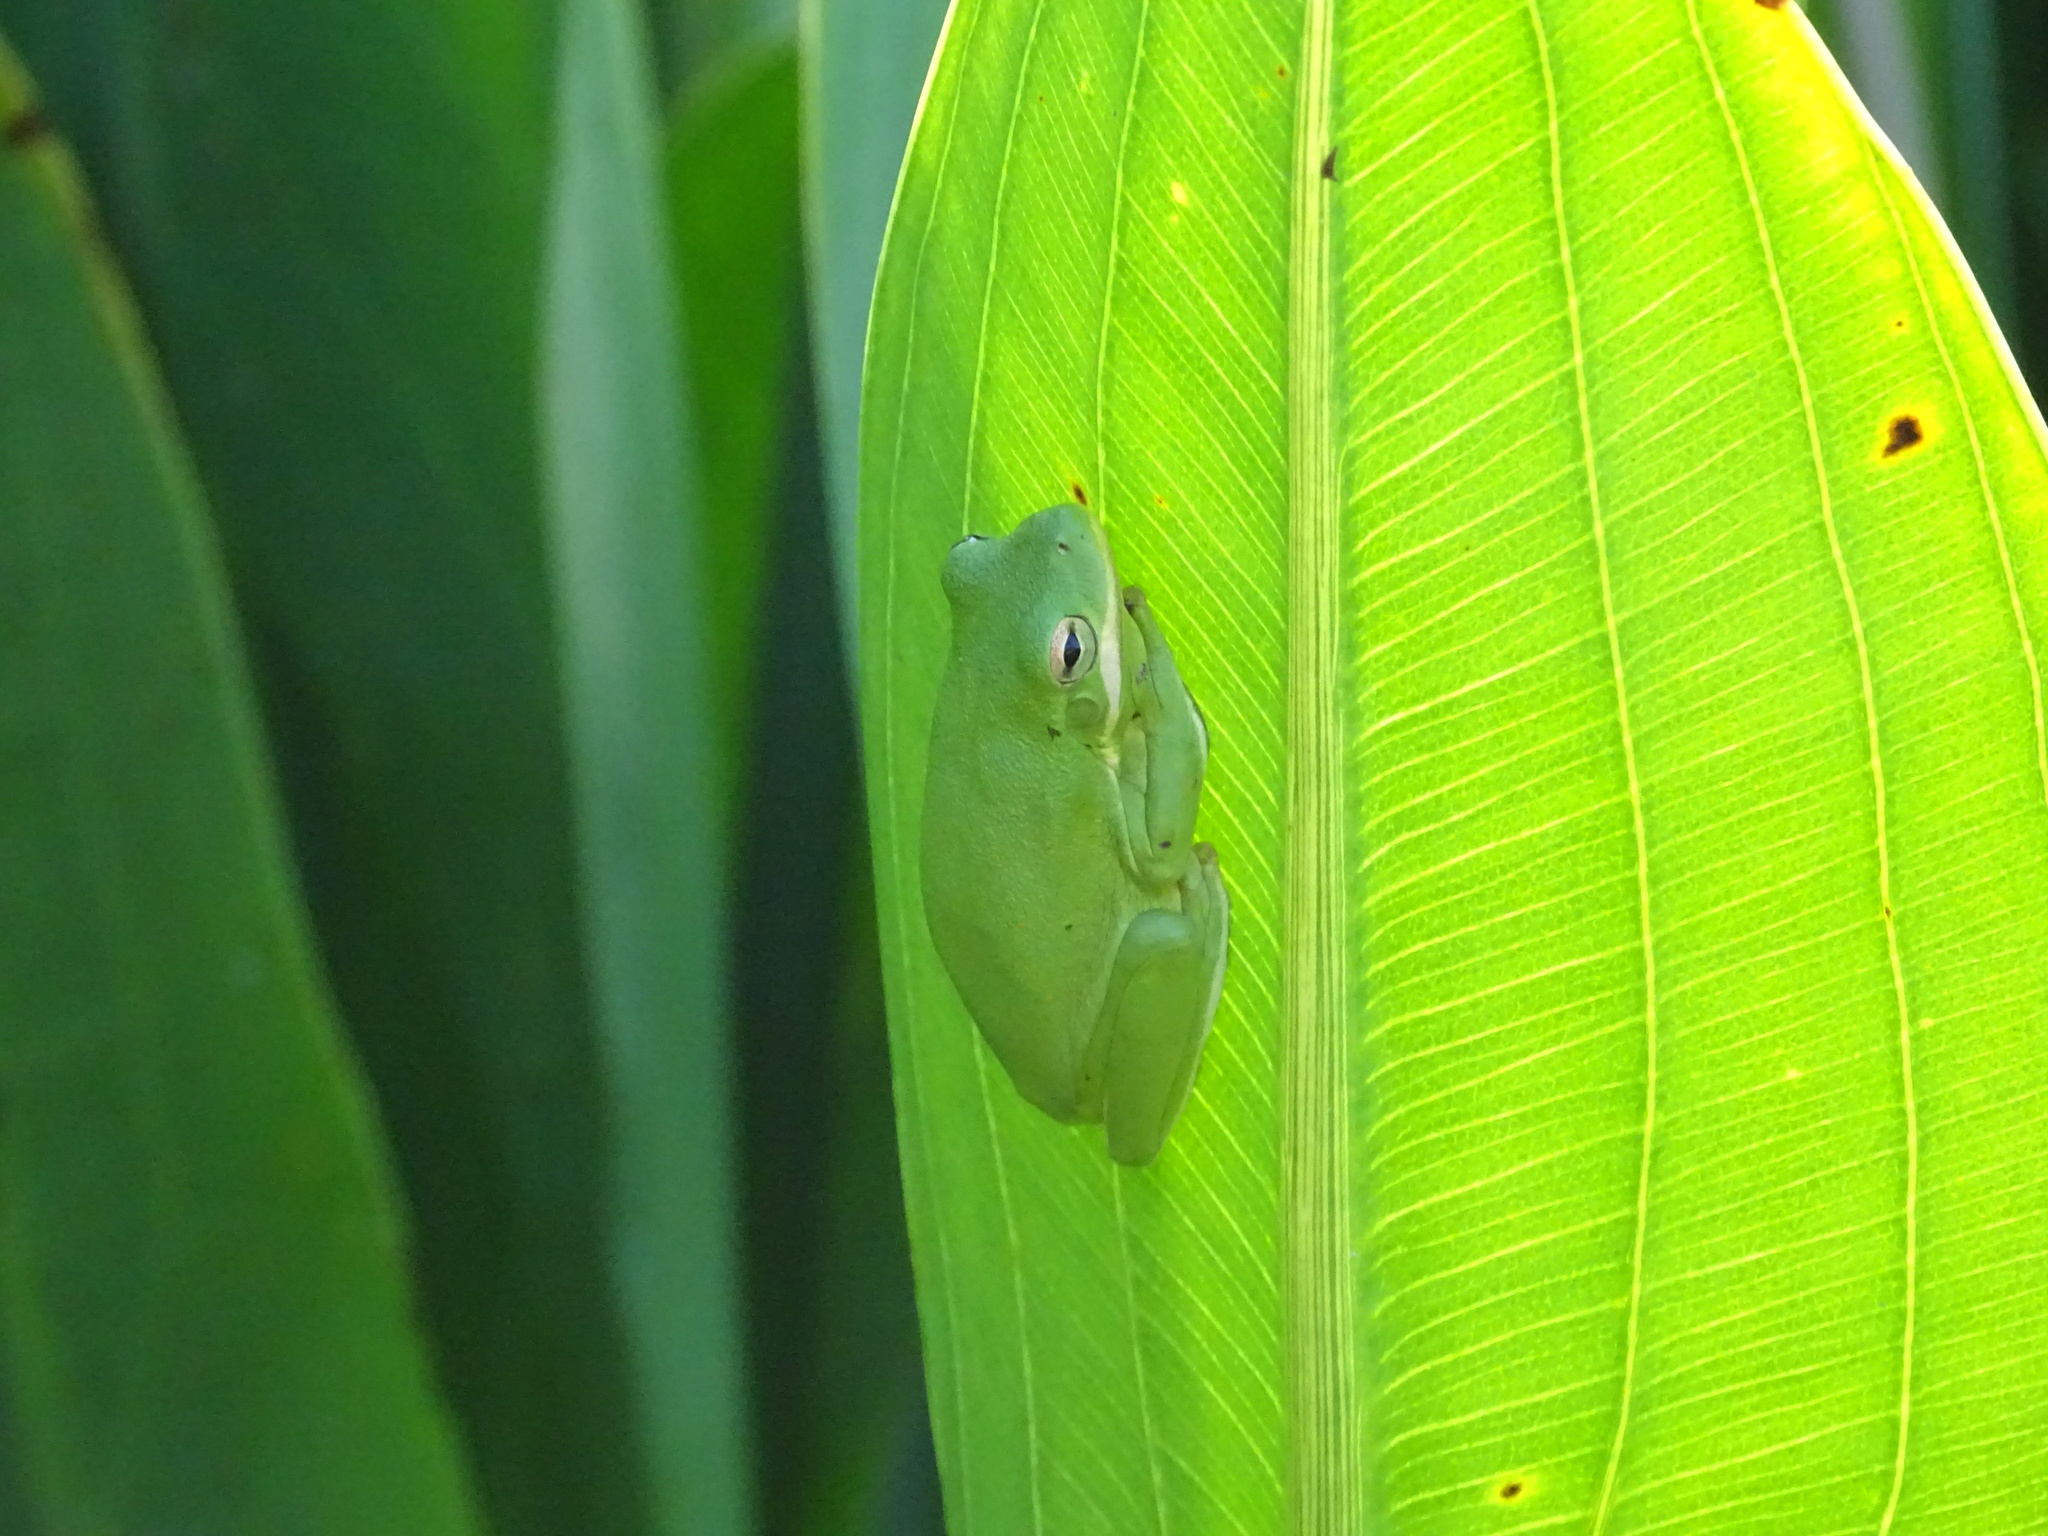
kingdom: Animalia
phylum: Chordata
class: Amphibia
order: Anura
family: Hylidae
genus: Dryophytes
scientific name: Dryophytes cinereus
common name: Green treefrog
